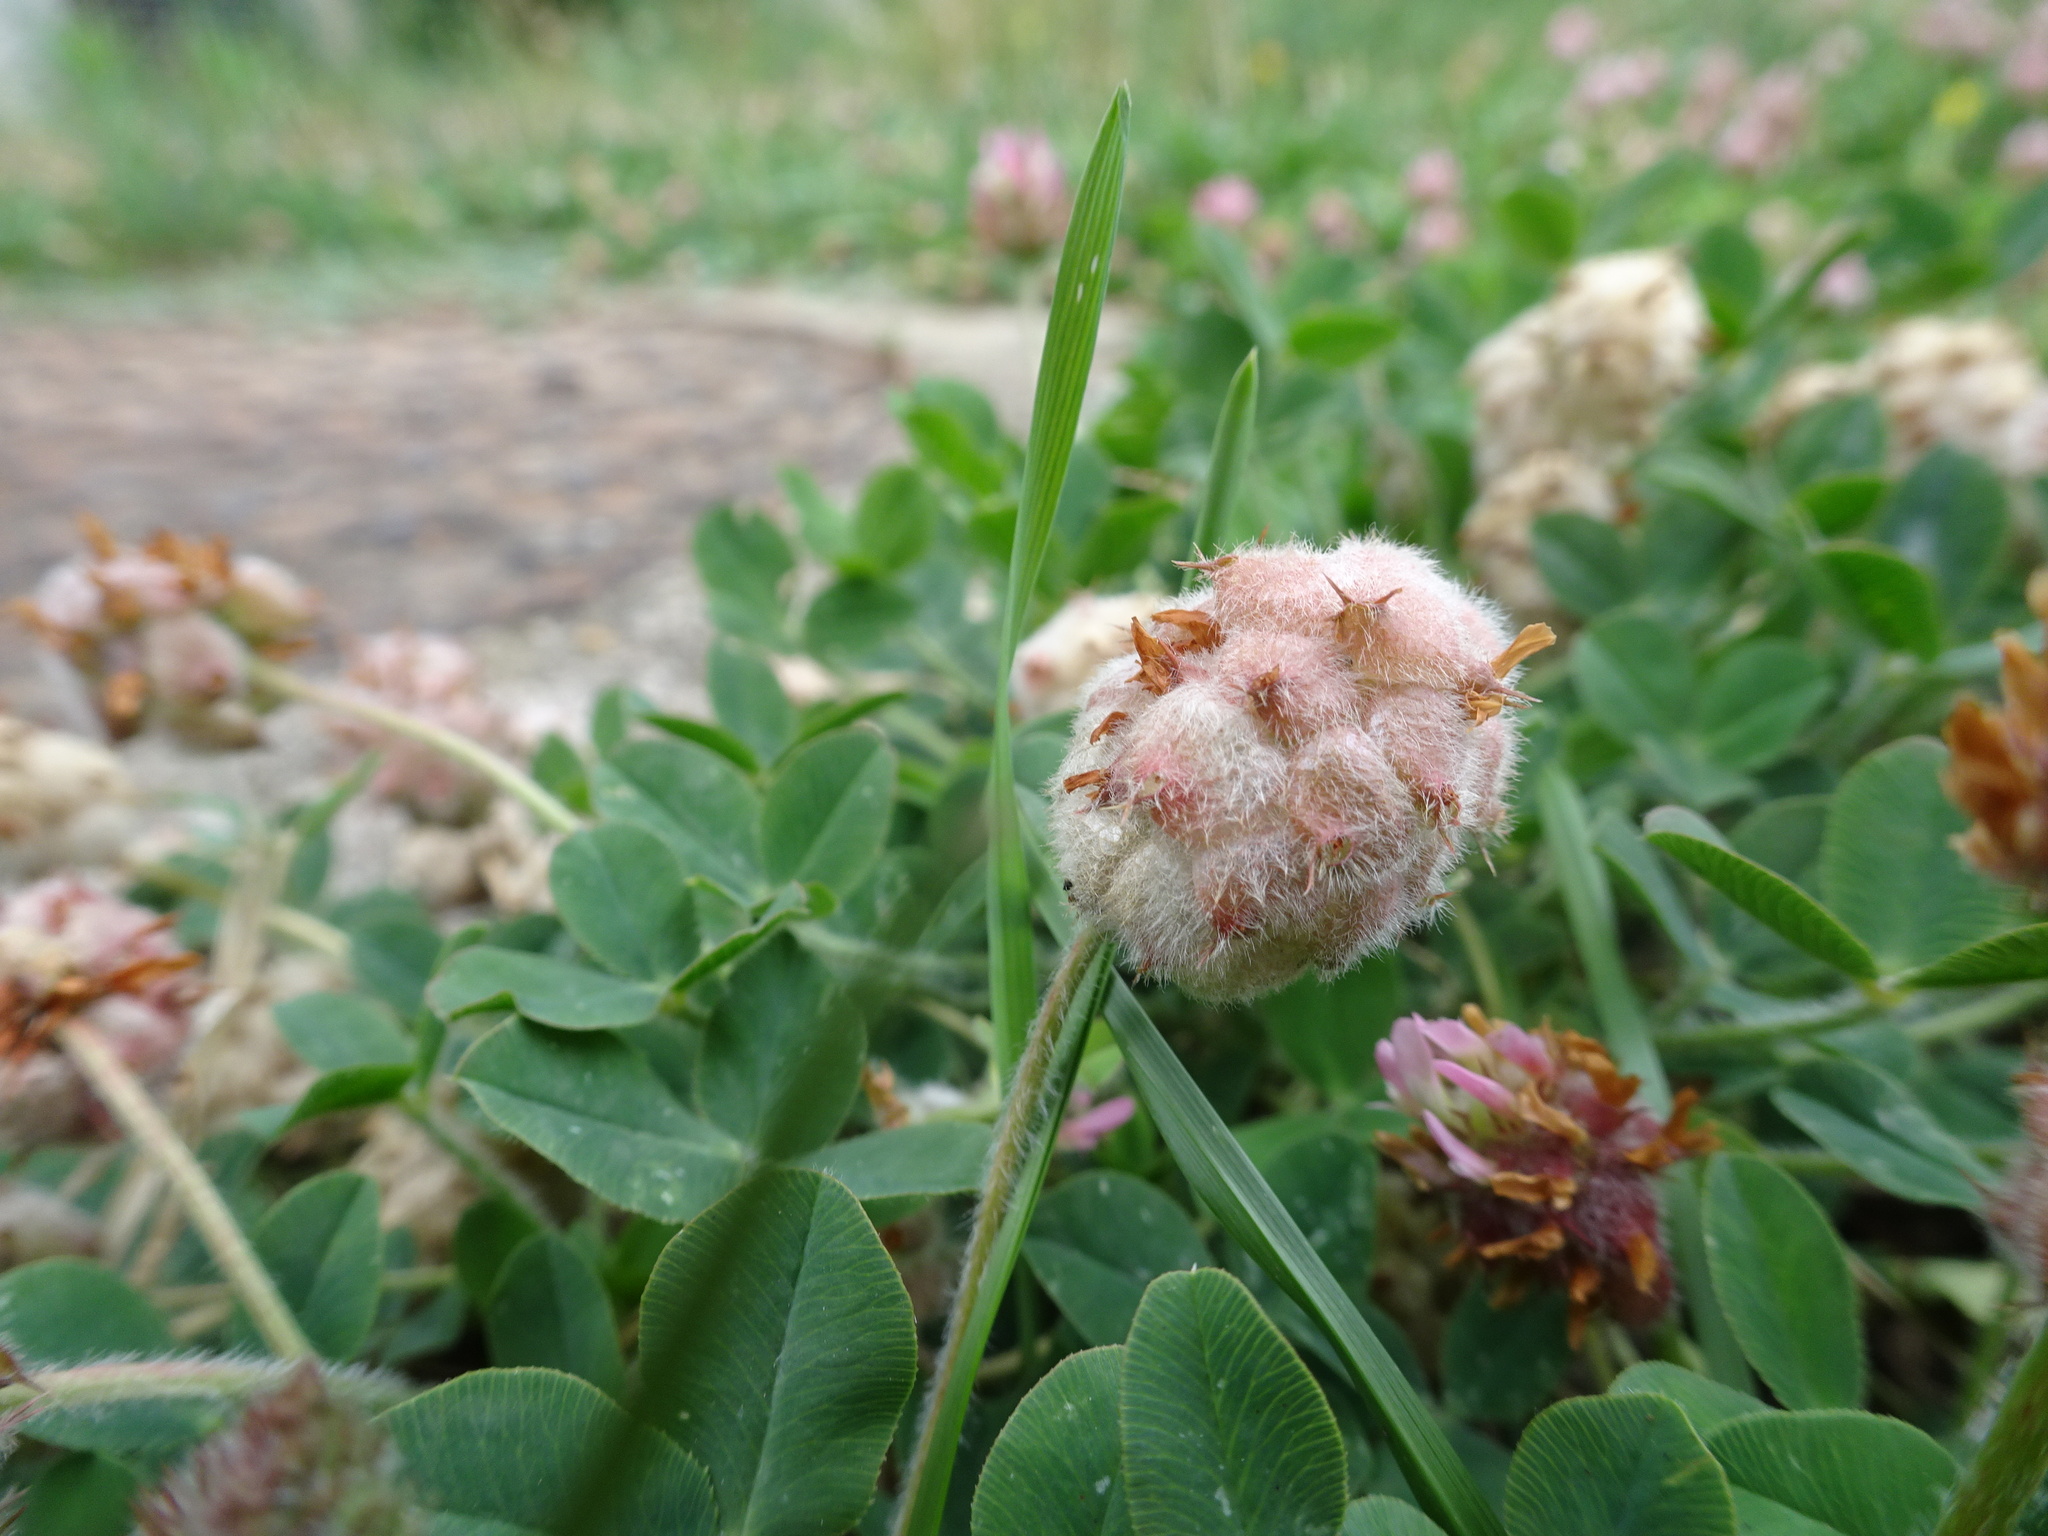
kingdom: Plantae
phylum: Tracheophyta
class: Magnoliopsida
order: Fabales
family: Fabaceae
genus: Trifolium
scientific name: Trifolium fragiferum
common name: Strawberry clover
